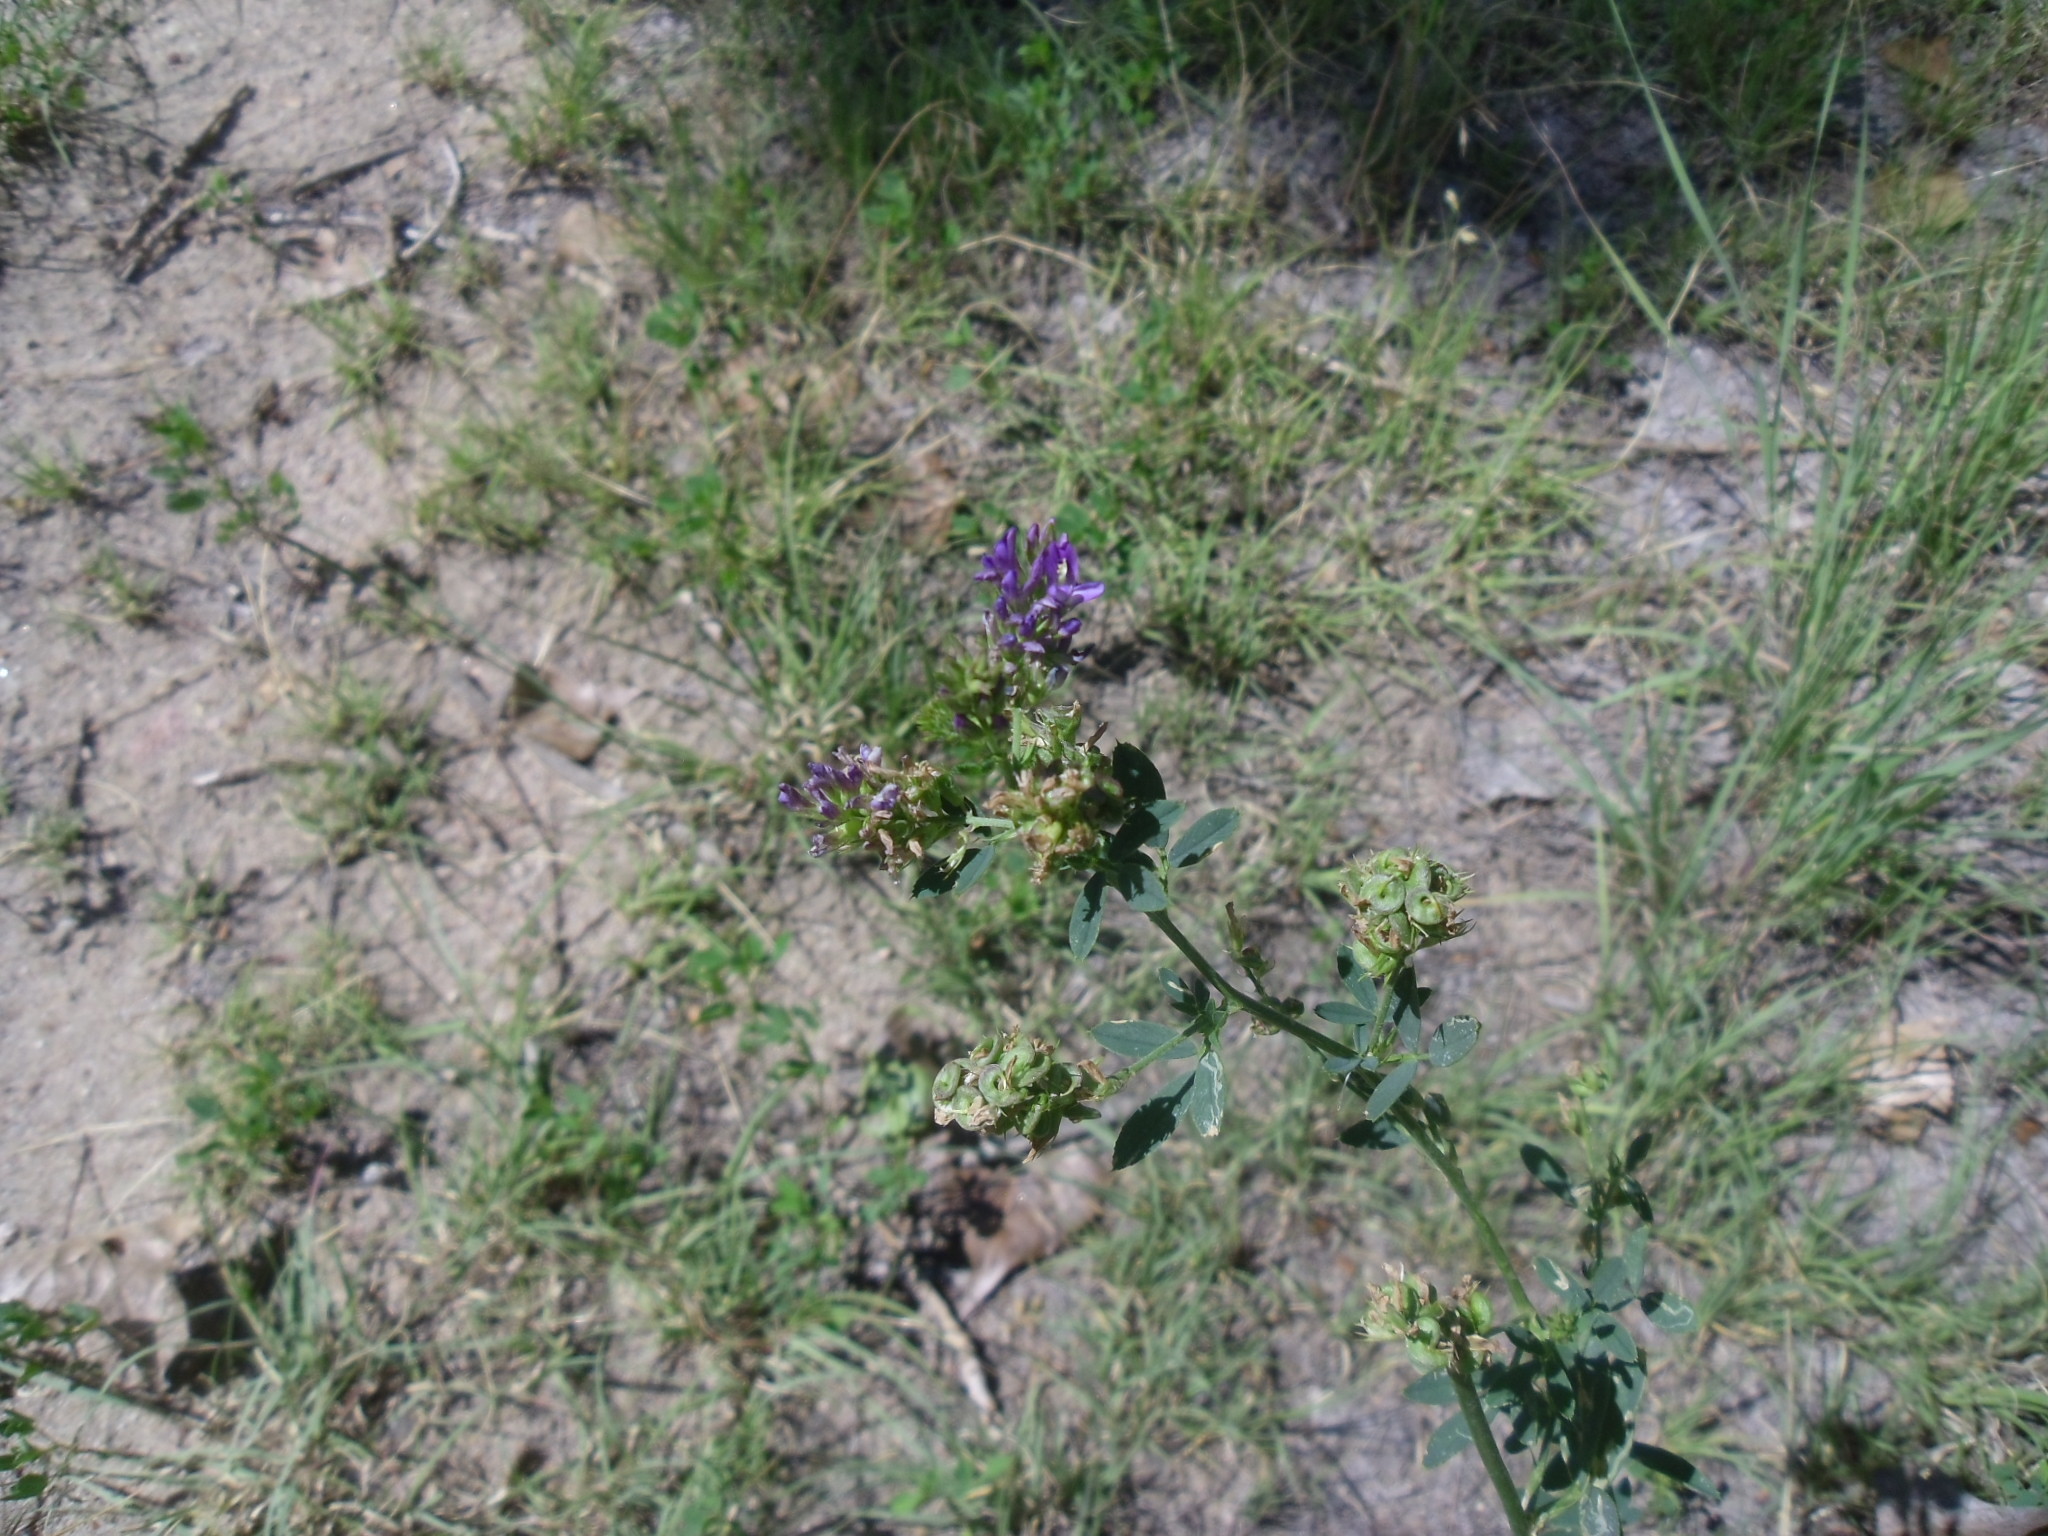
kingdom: Plantae
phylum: Tracheophyta
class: Magnoliopsida
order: Fabales
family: Fabaceae
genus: Medicago
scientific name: Medicago sativa
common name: Alfalfa
